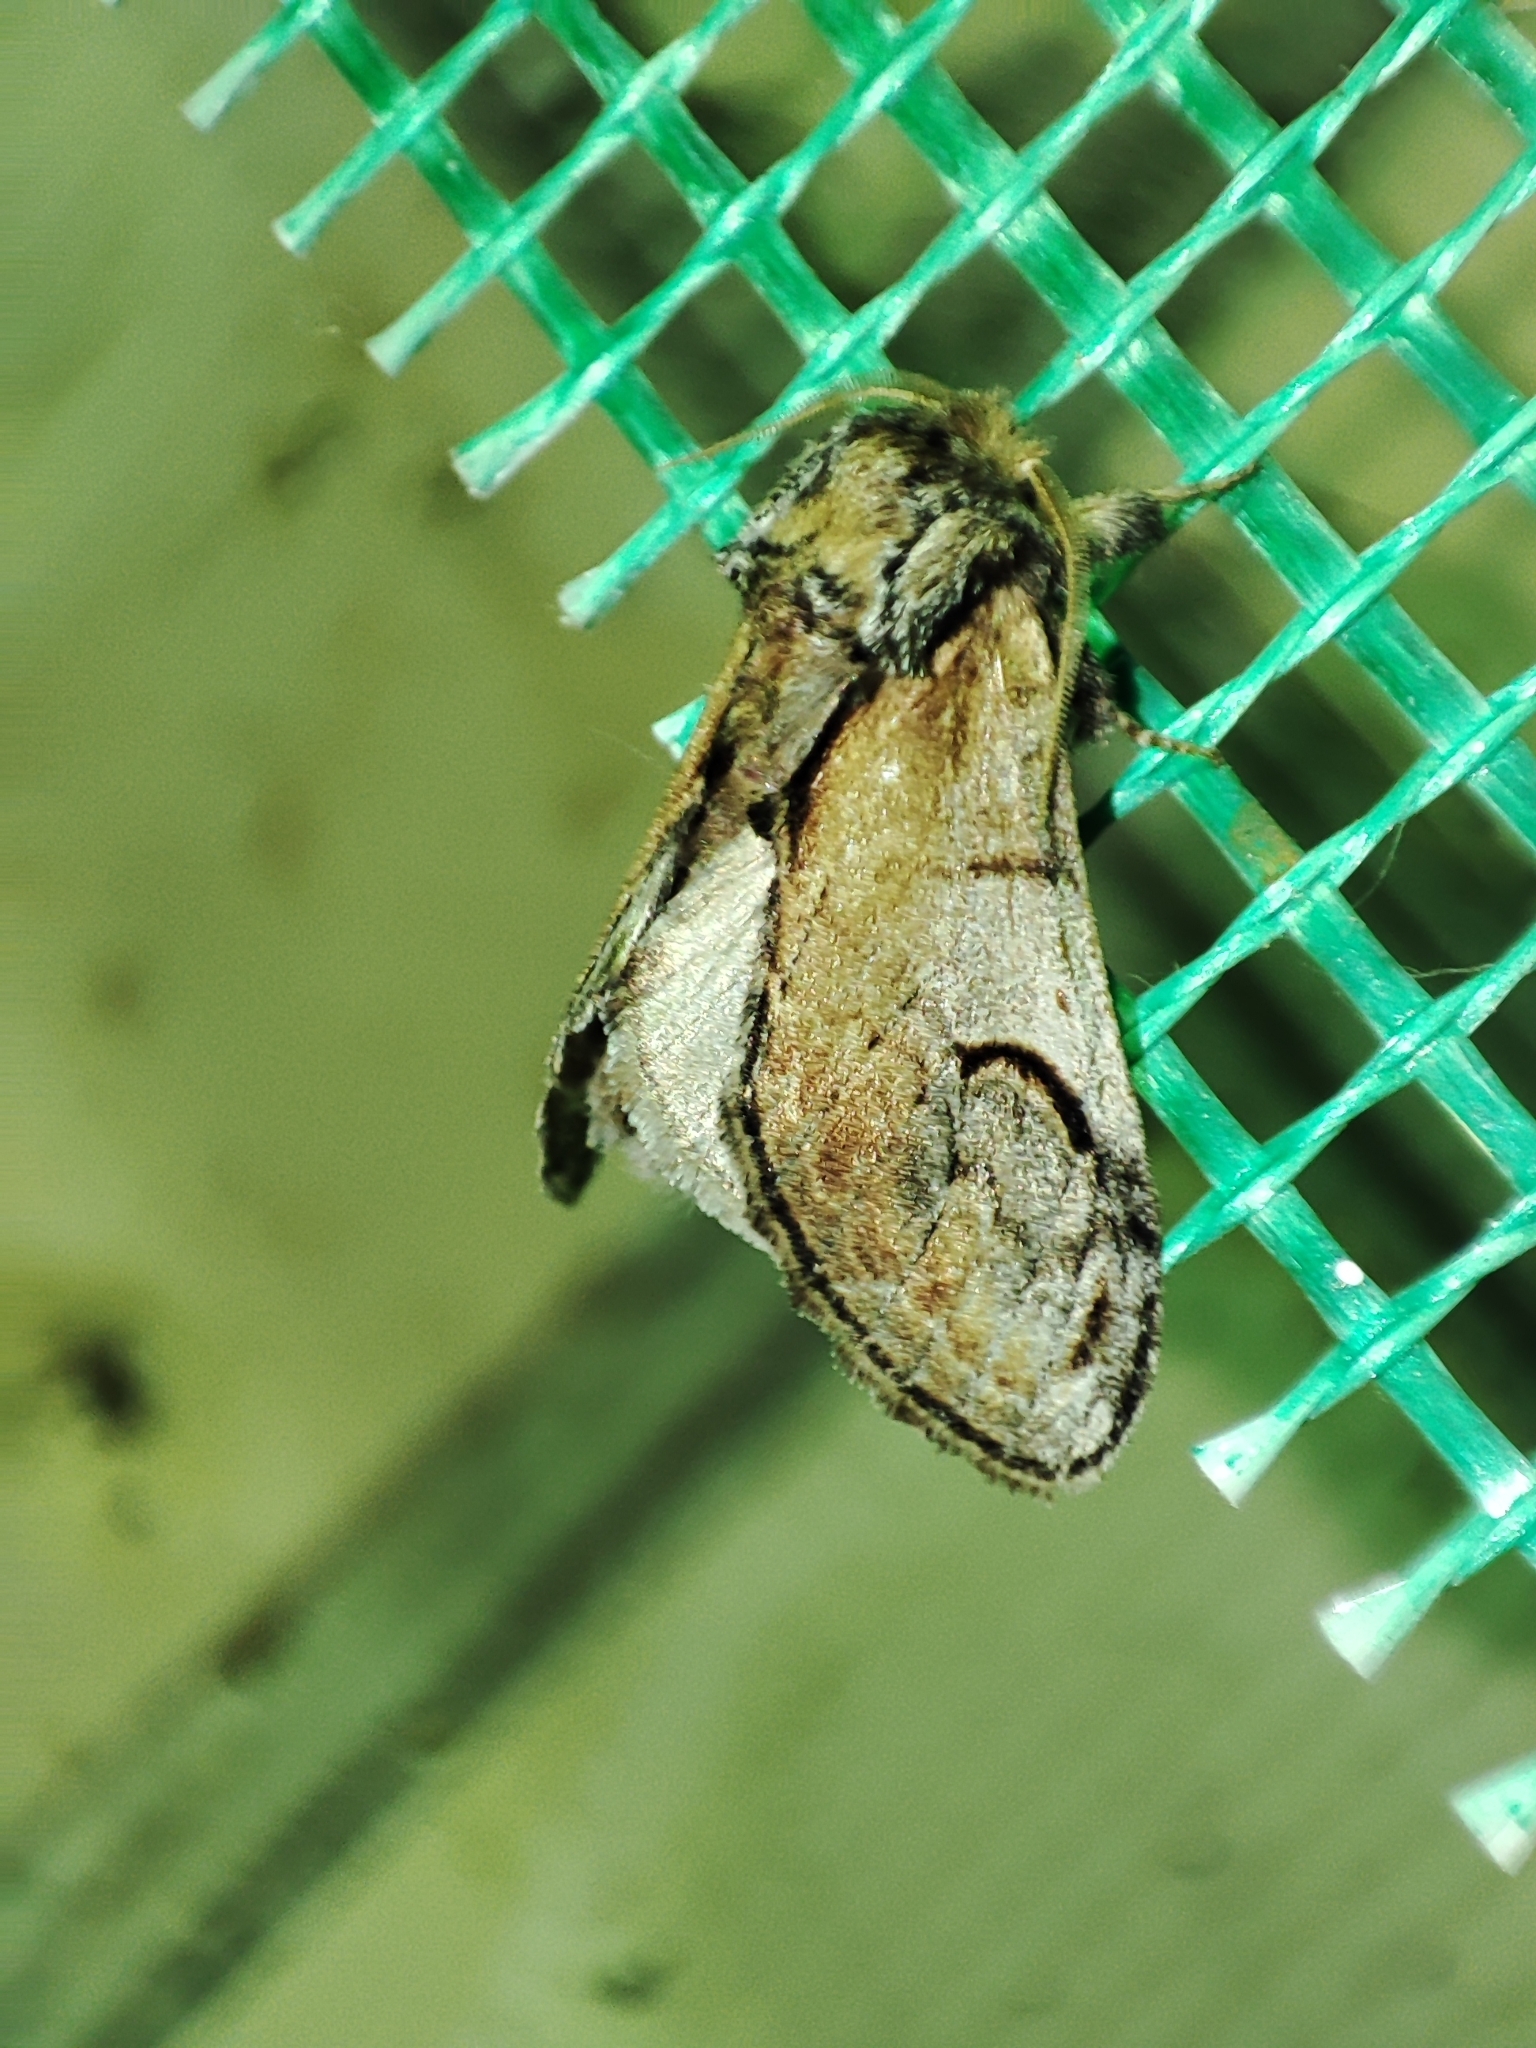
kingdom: Animalia
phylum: Arthropoda
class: Insecta
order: Lepidoptera
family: Notodontidae
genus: Notodonta
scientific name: Notodonta ziczac
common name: Pebble prominent
